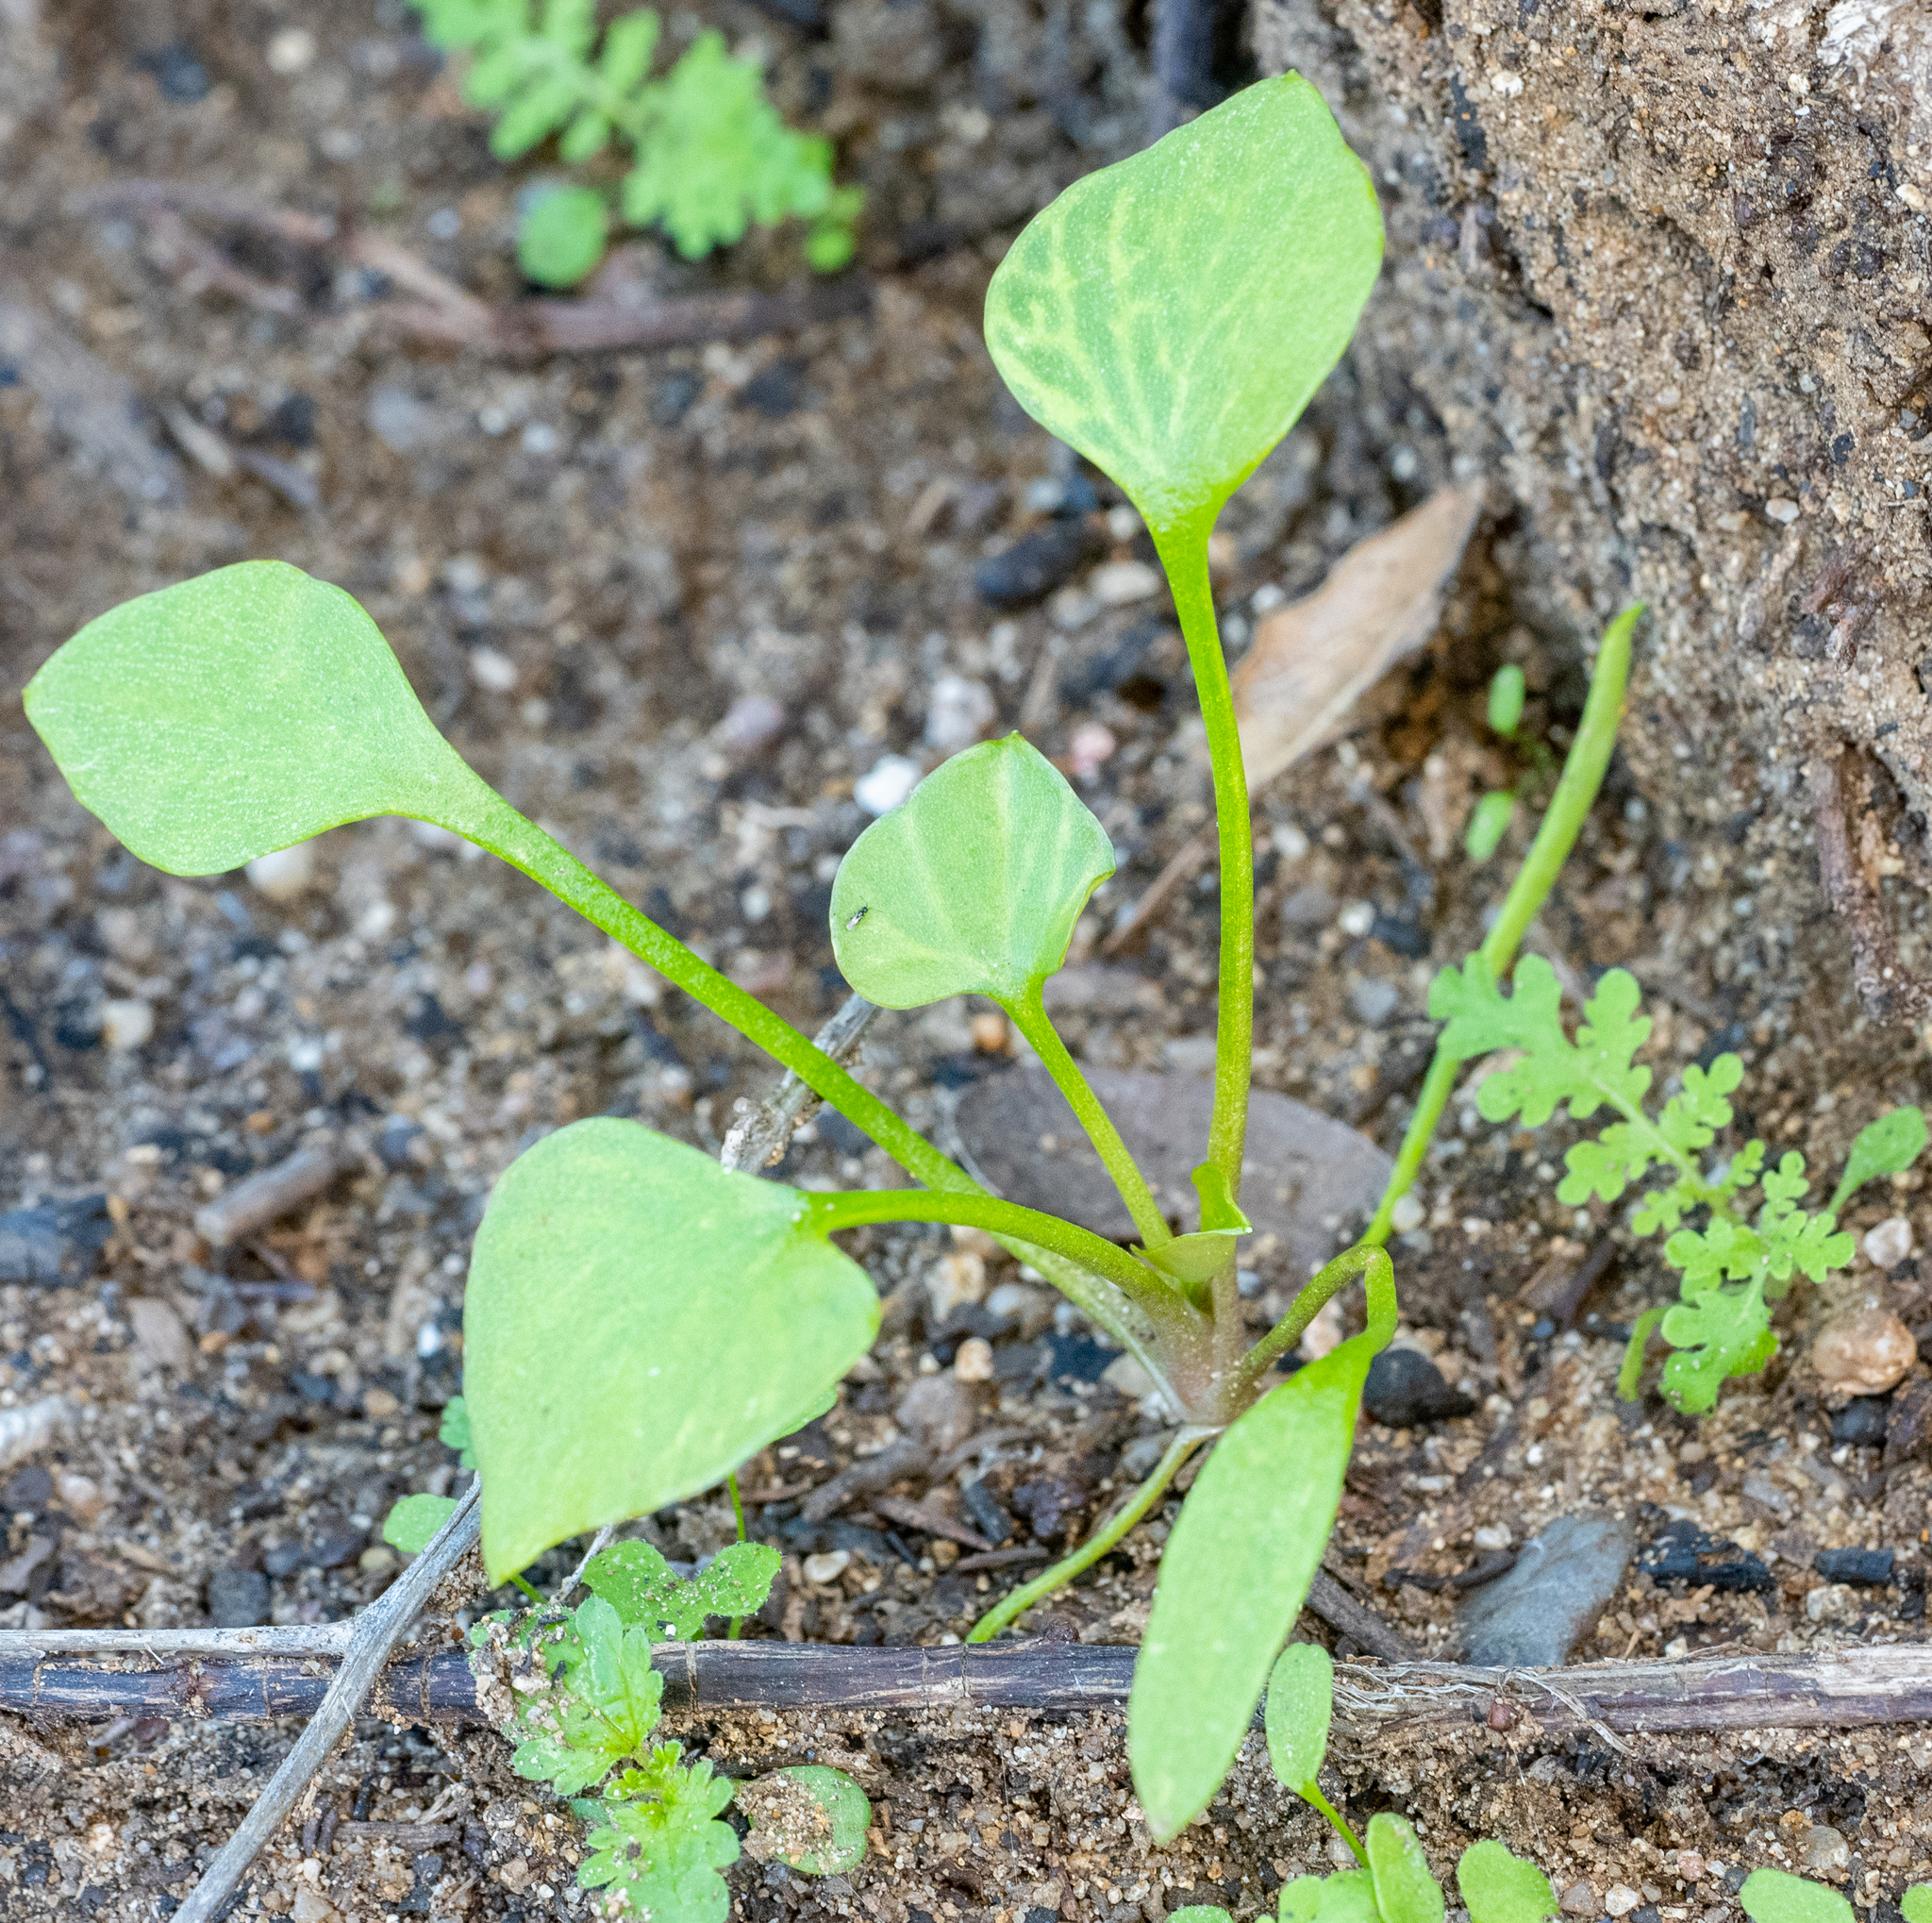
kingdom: Plantae
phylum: Tracheophyta
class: Magnoliopsida
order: Caryophyllales
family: Montiaceae
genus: Claytonia
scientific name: Claytonia perfoliata
